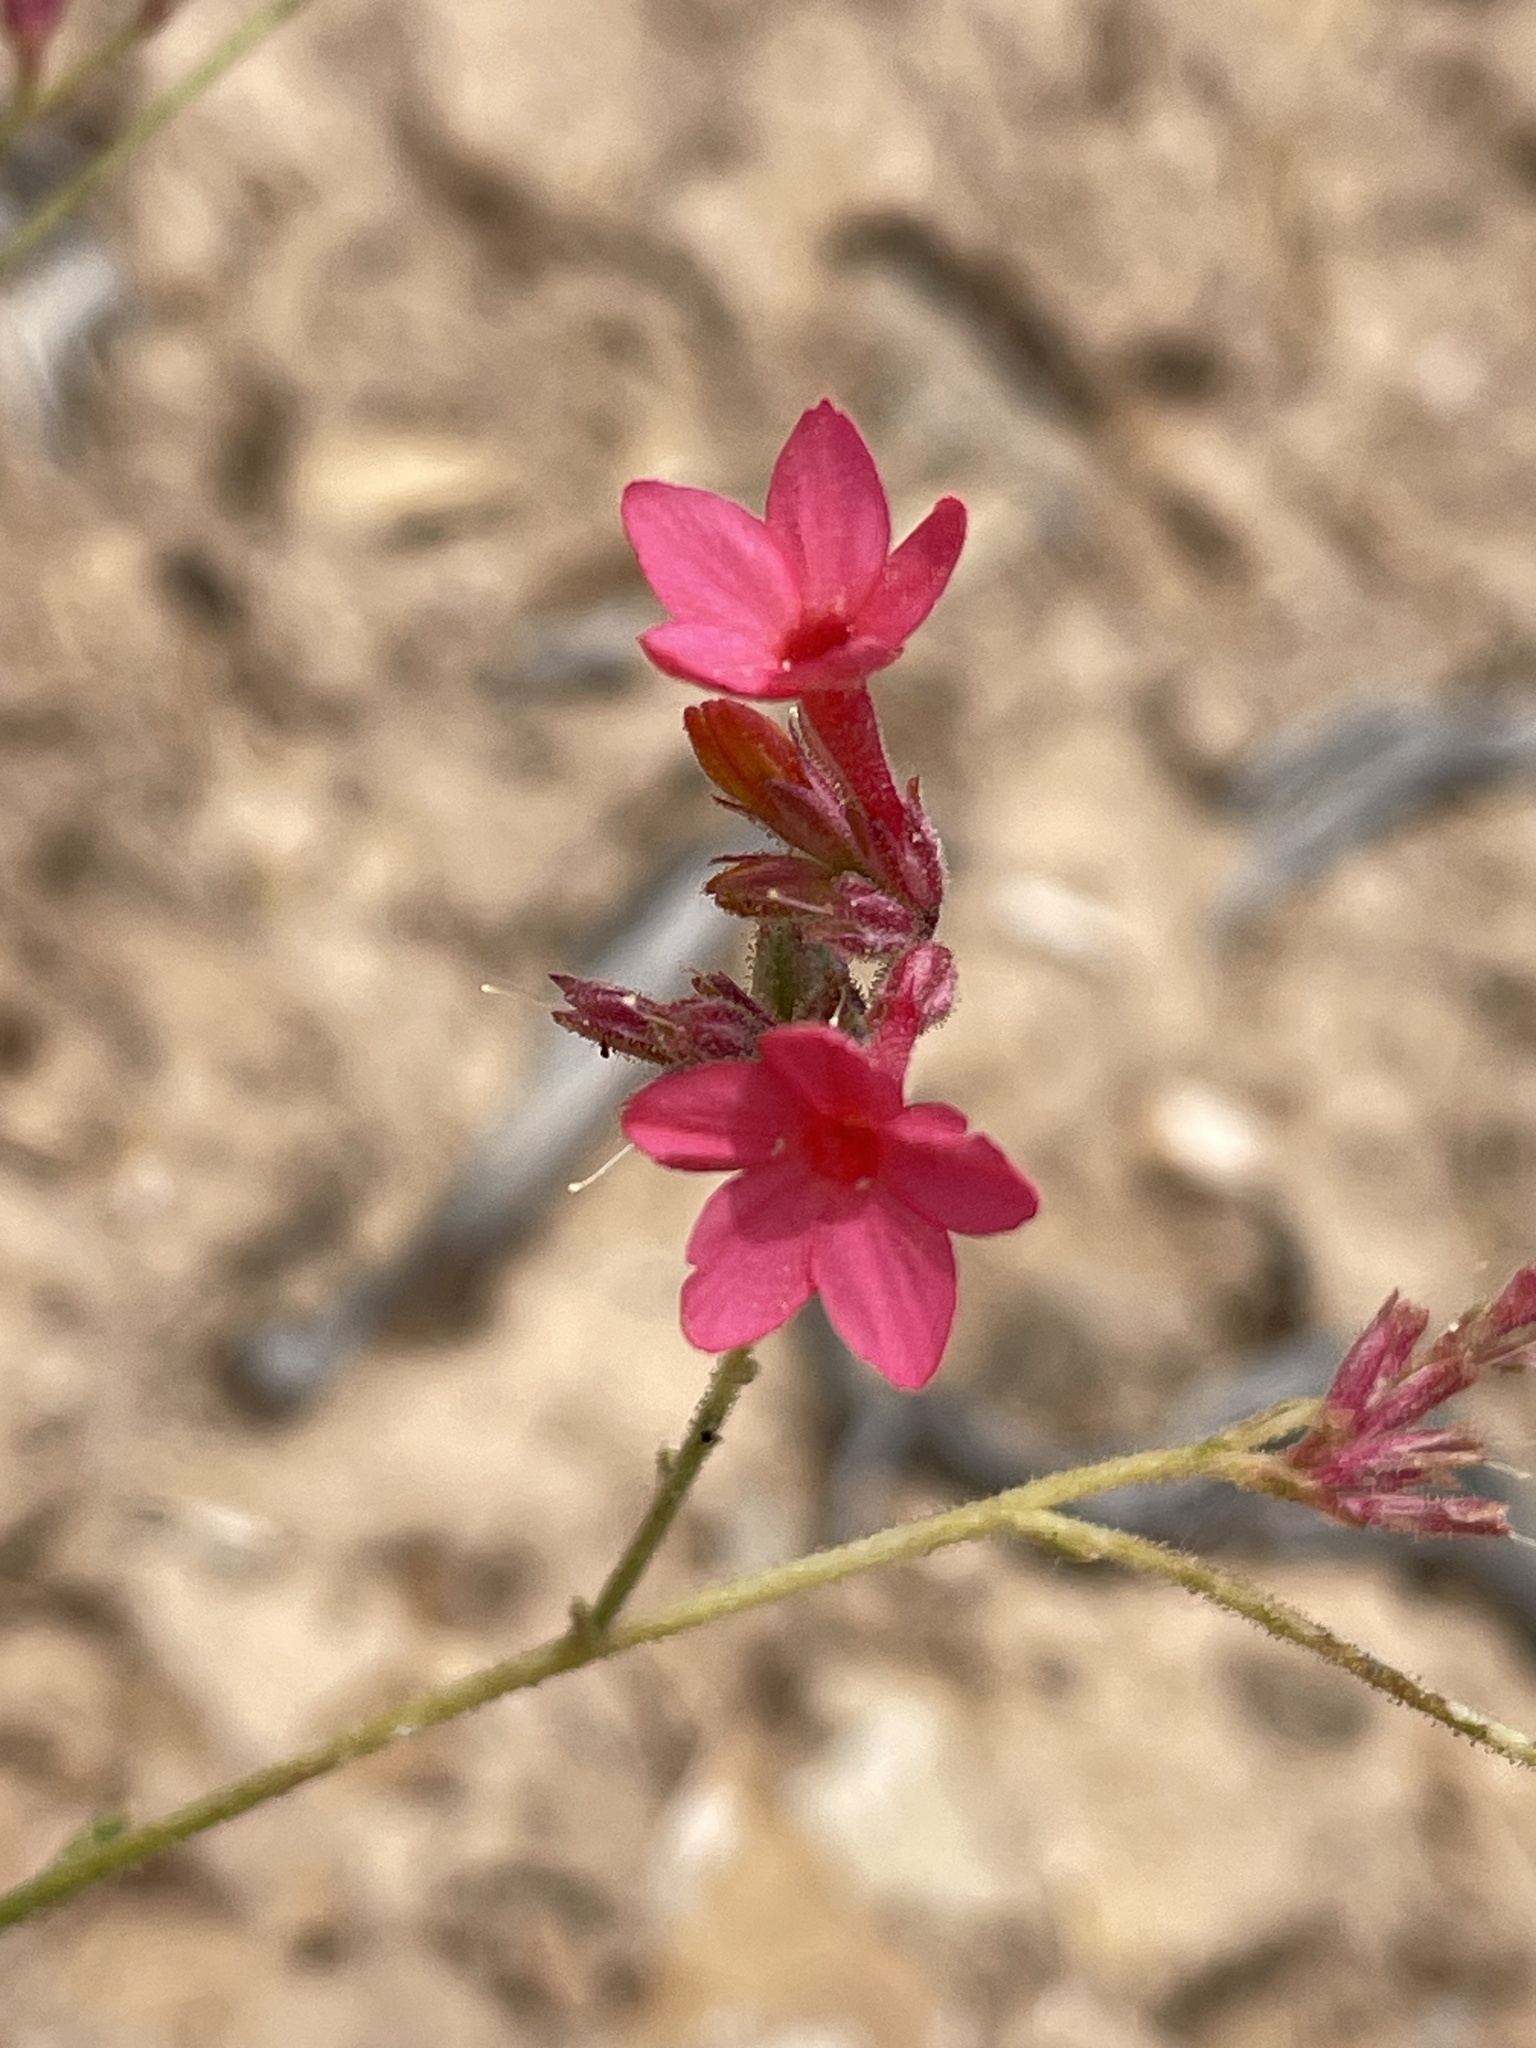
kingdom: Plantae
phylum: Tracheophyta
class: Magnoliopsida
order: Ericales
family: Polemoniaceae
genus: Aliciella
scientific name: Aliciella subnuda
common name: Coral gilia
